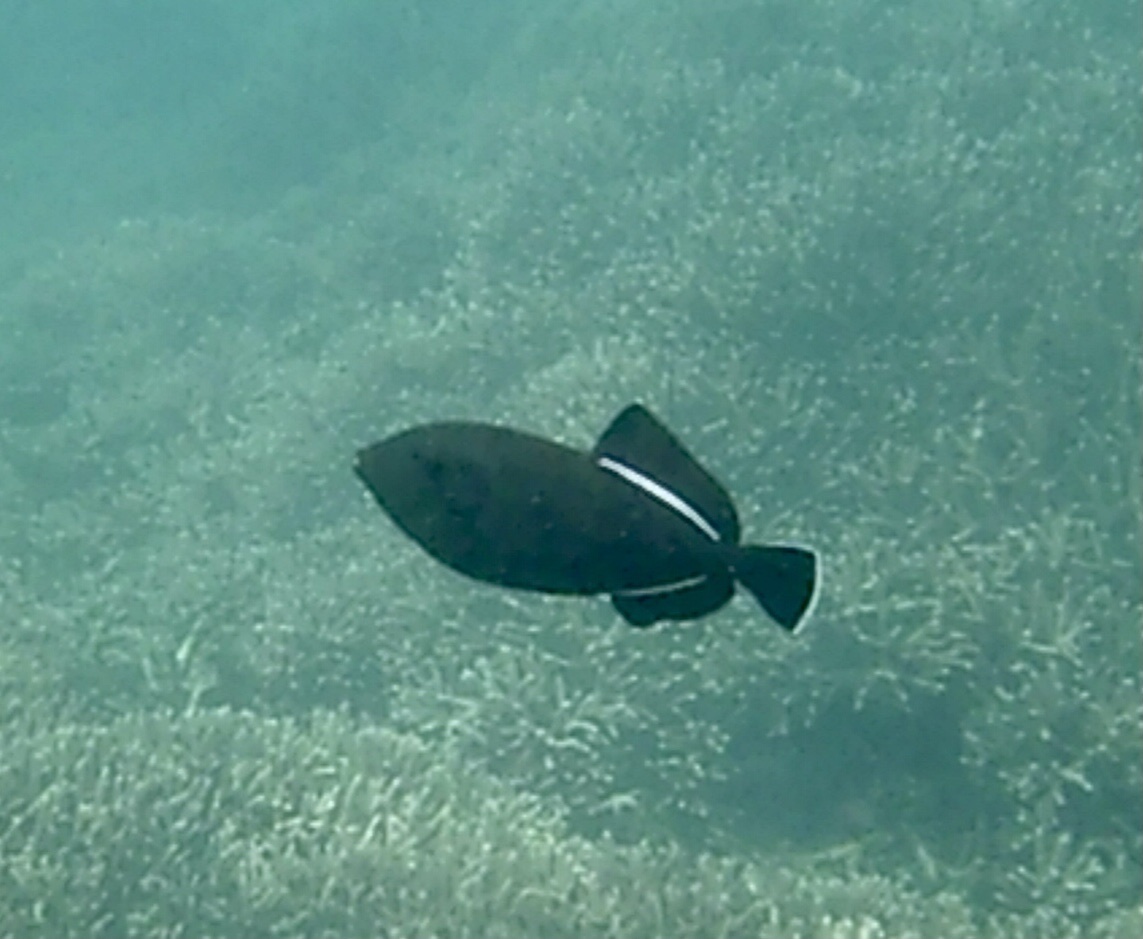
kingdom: Animalia
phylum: Chordata
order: Tetraodontiformes
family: Balistidae
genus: Melichthys
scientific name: Melichthys indicus
